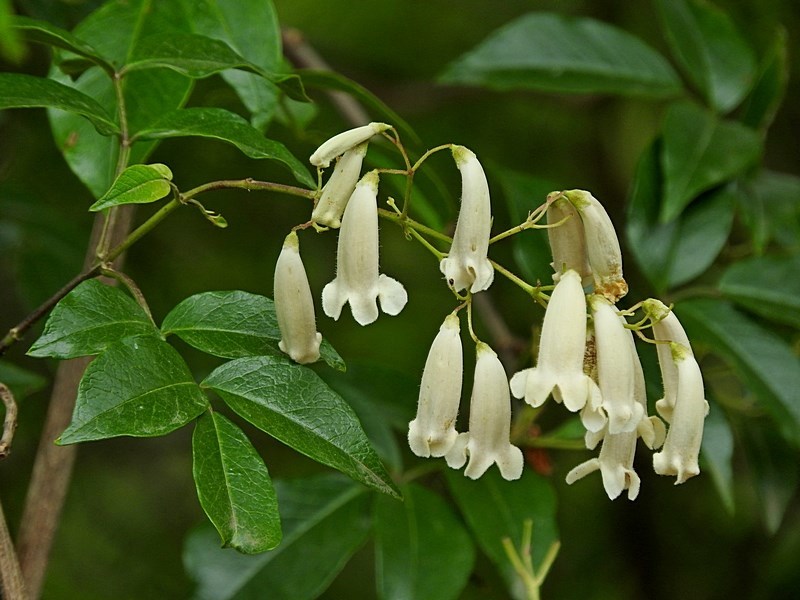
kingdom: Plantae
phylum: Tracheophyta
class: Magnoliopsida
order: Lamiales
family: Bignoniaceae
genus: Pandorea
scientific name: Pandorea pandorana
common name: Wonga-wonga-vine
